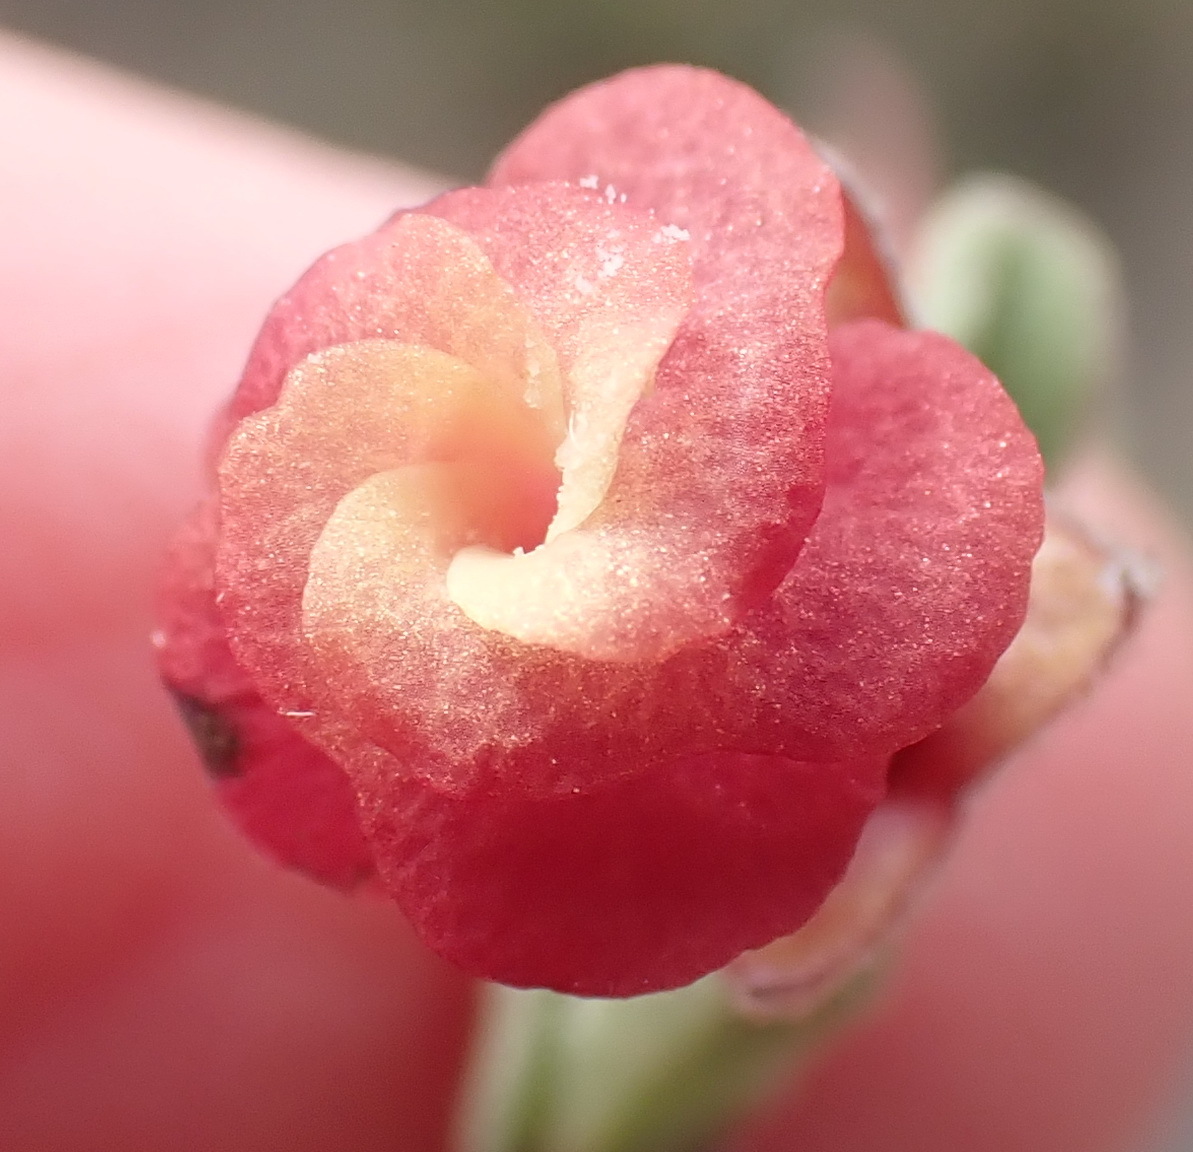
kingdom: Plantae
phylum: Tracheophyta
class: Magnoliopsida
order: Malvales
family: Malvaceae
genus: Hermannia
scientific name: Hermannia flammula
